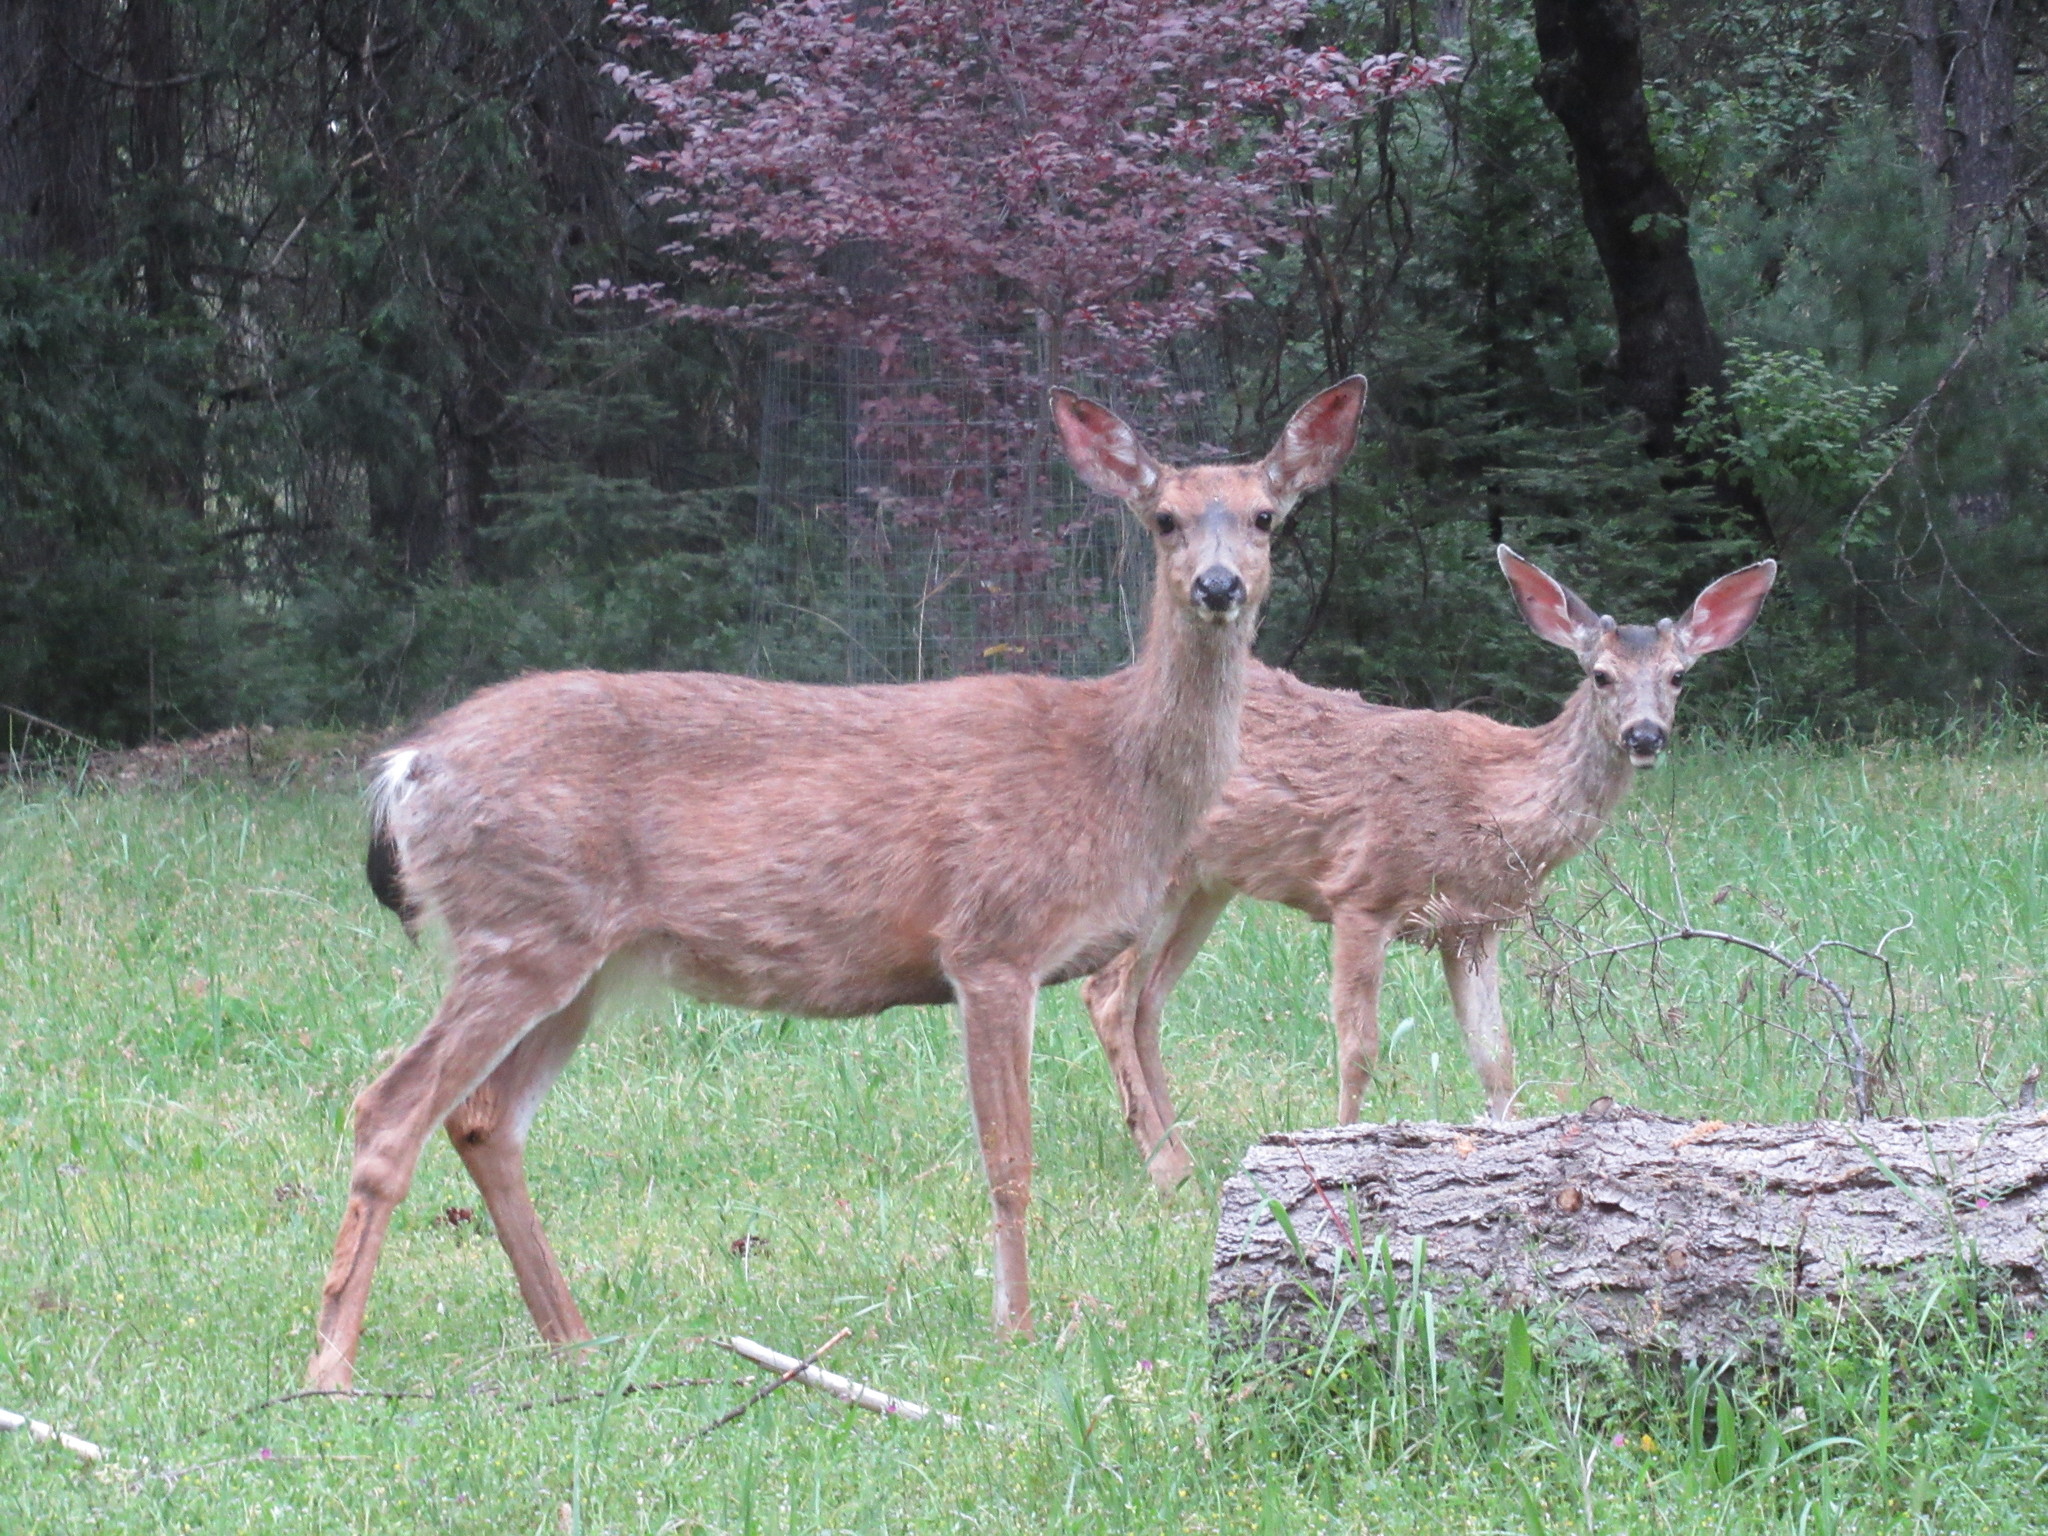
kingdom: Animalia
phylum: Chordata
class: Mammalia
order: Artiodactyla
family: Cervidae
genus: Odocoileus
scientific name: Odocoileus hemionus
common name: Mule deer
